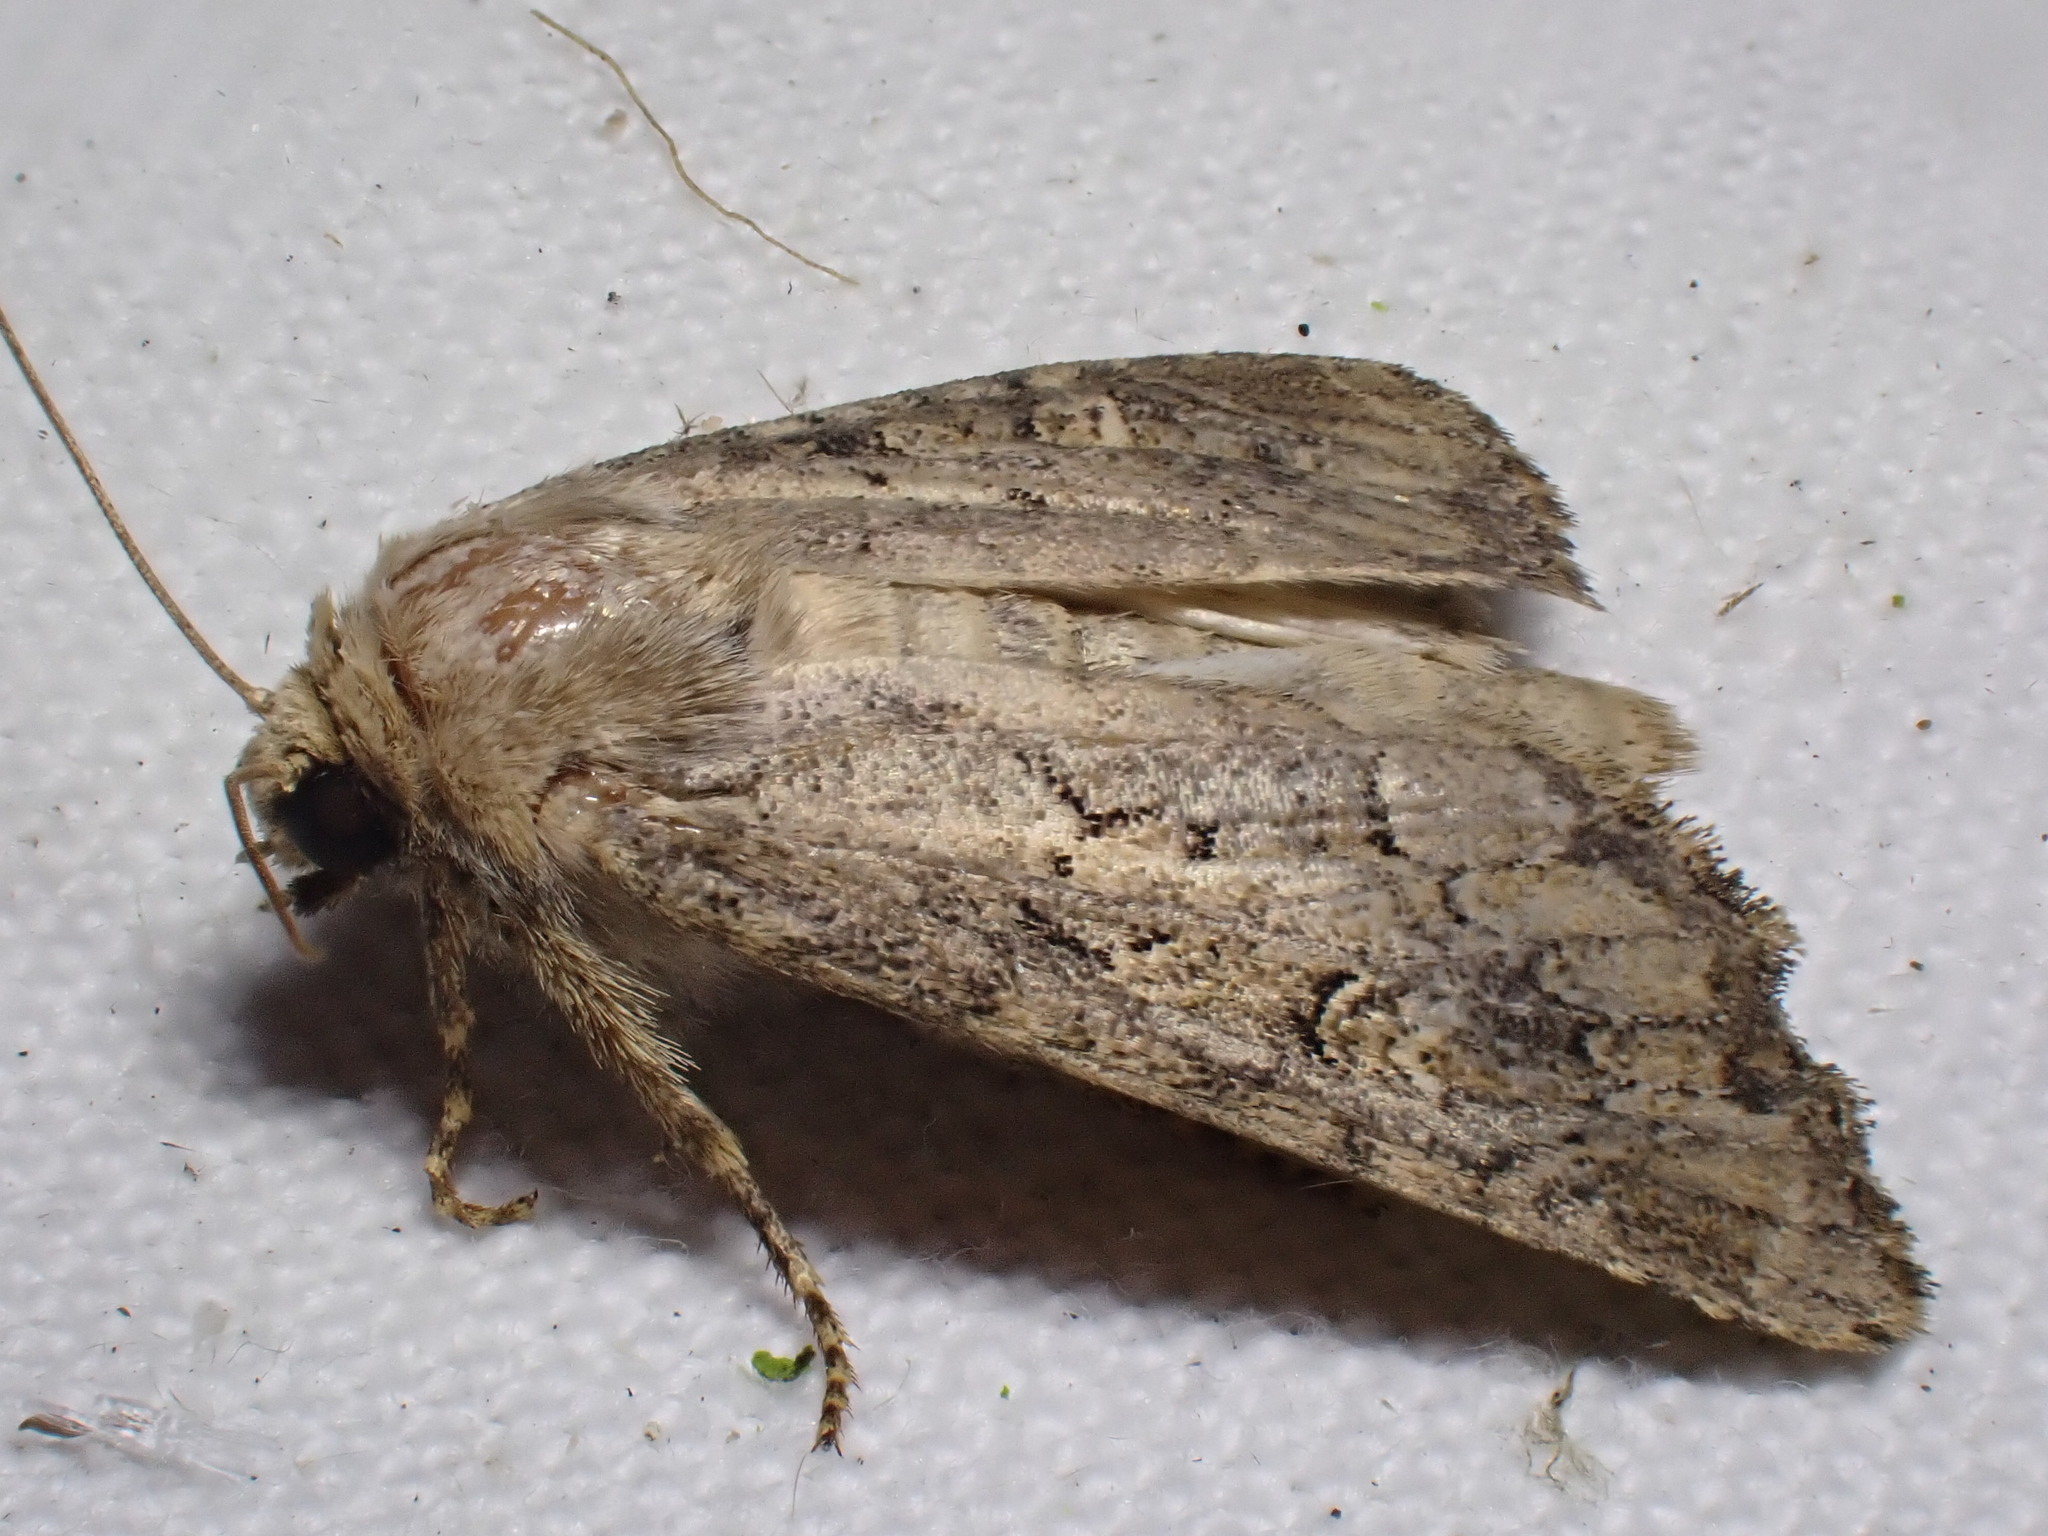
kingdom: Animalia
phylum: Arthropoda
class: Insecta
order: Lepidoptera
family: Noctuidae
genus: Luperina
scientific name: Luperina testacea
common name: Flounced rustic
